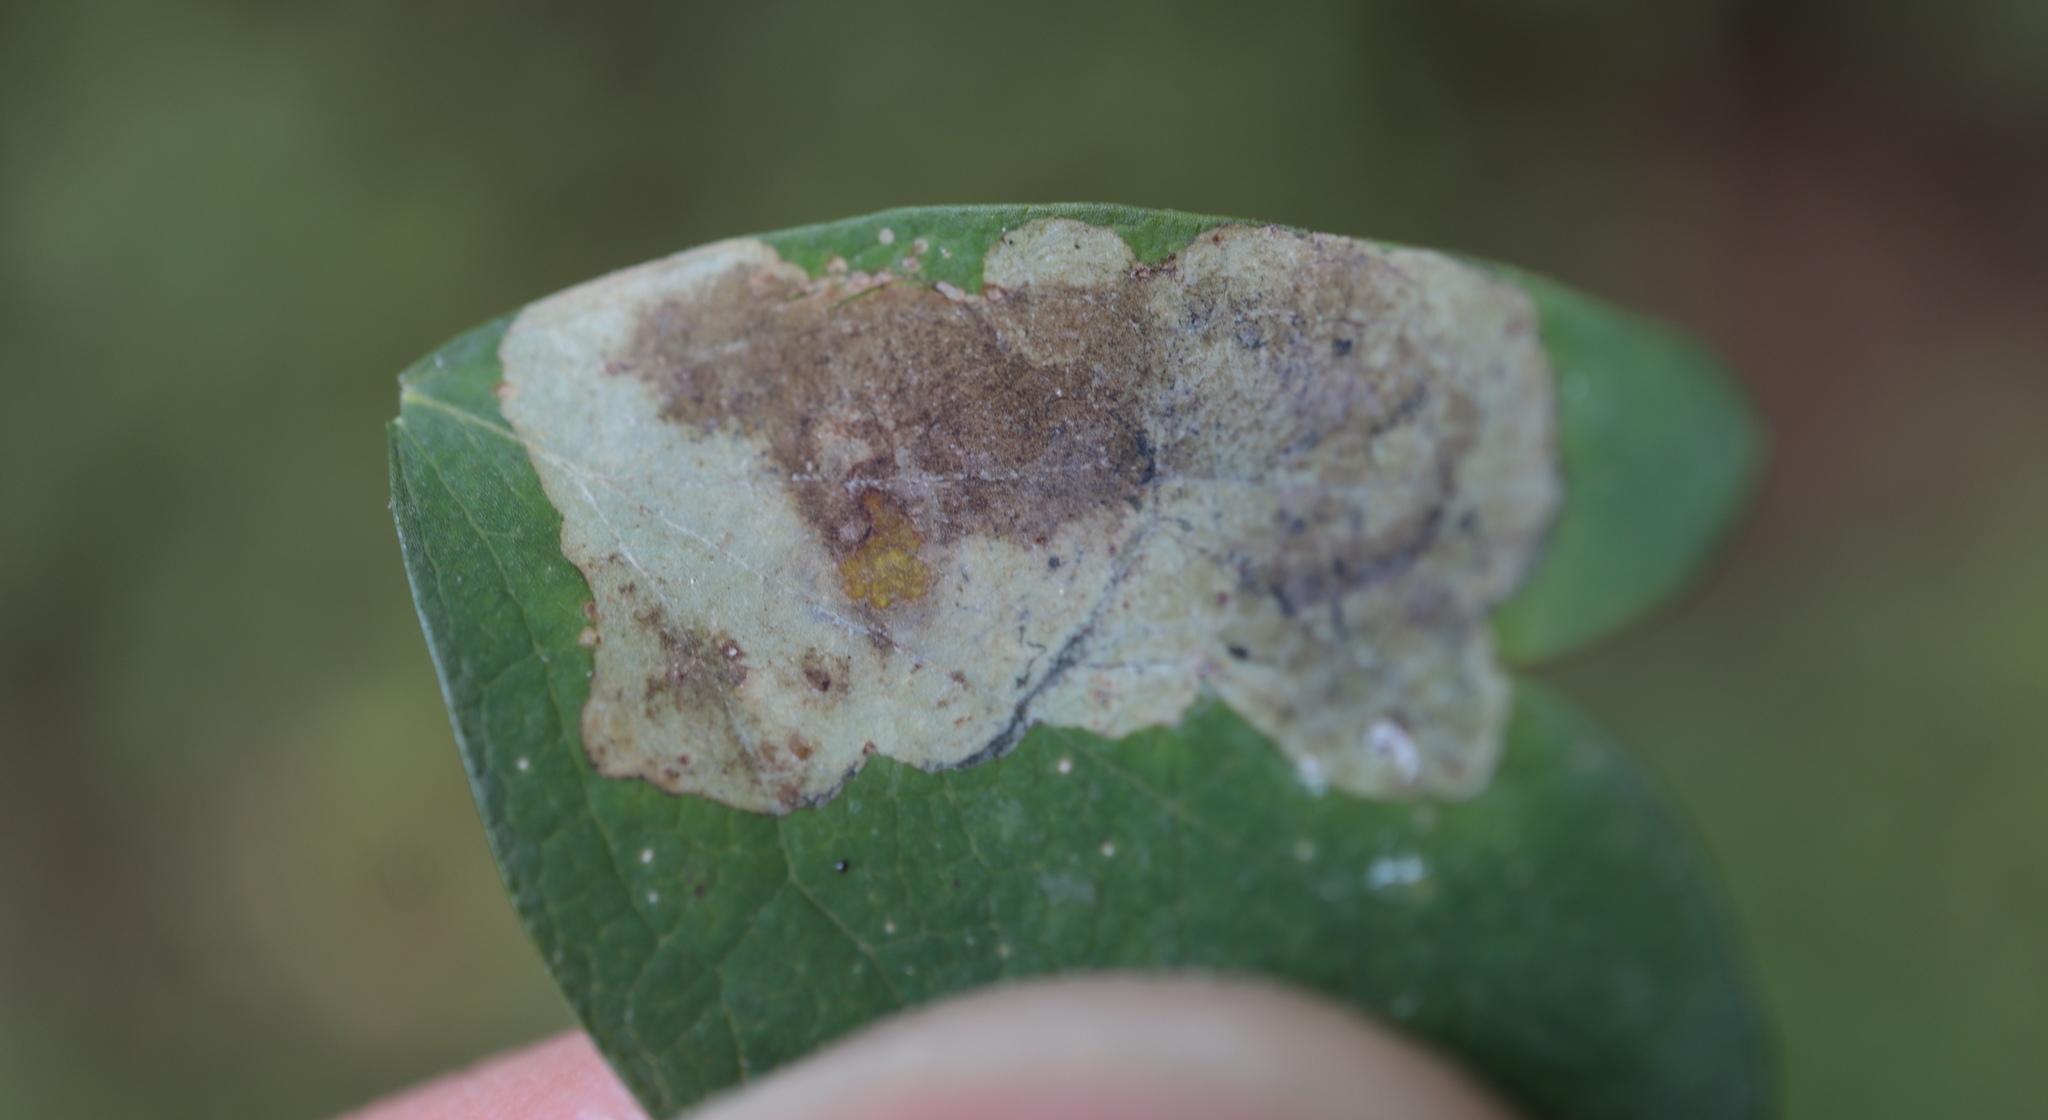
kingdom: Animalia
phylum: Arthropoda
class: Insecta
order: Diptera
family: Agromyzidae
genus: Phytomyza
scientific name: Phytomyza plumiseta
